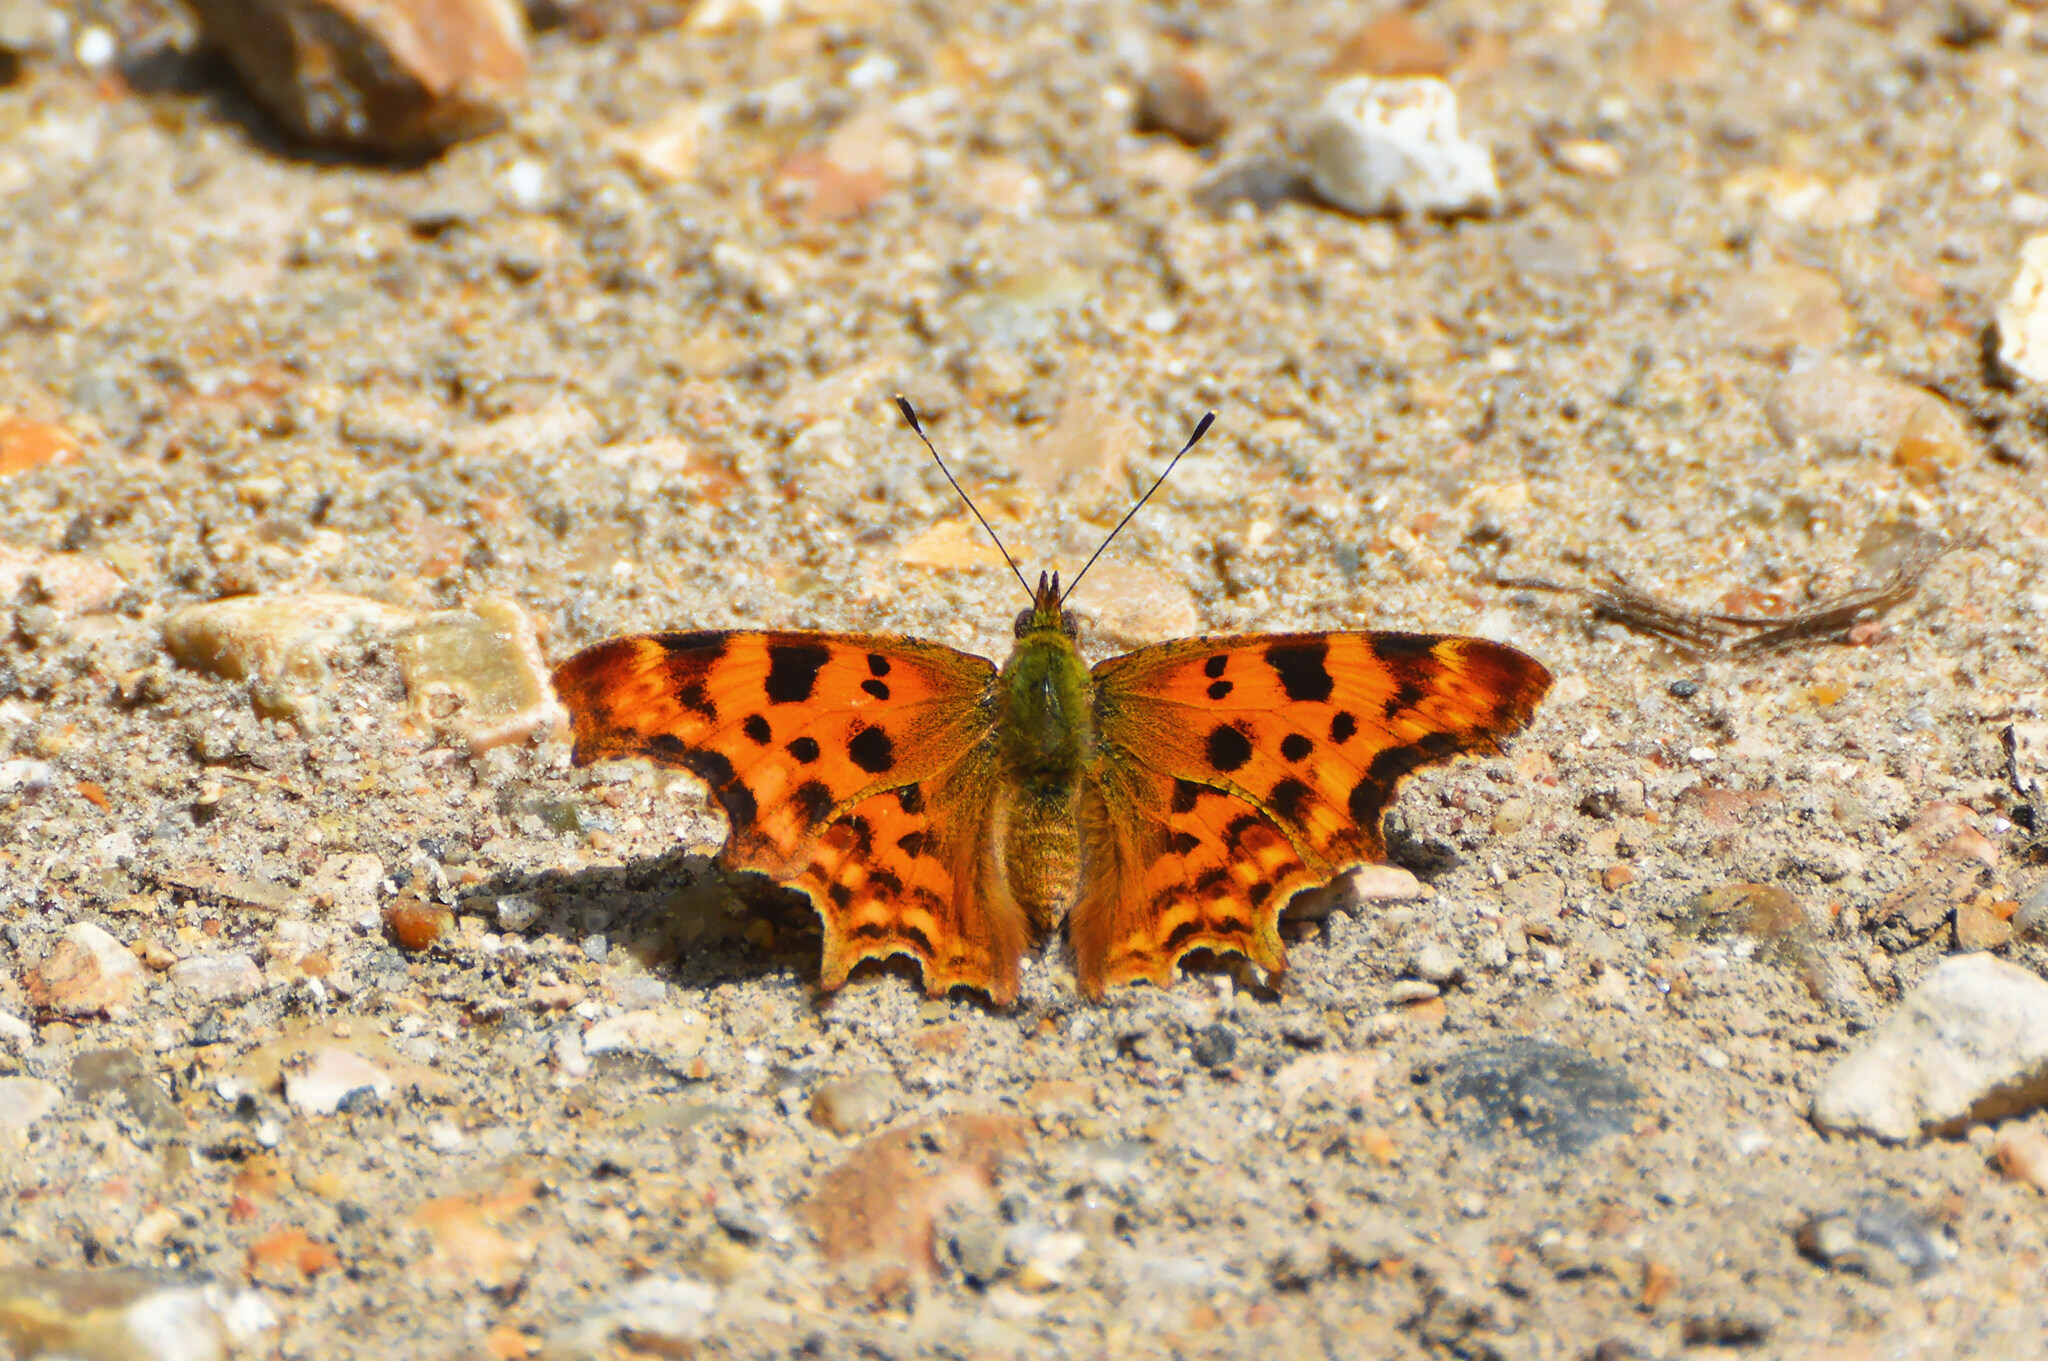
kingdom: Animalia
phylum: Arthropoda
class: Insecta
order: Lepidoptera
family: Nymphalidae
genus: Polygonia
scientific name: Polygonia c-album
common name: Comma
